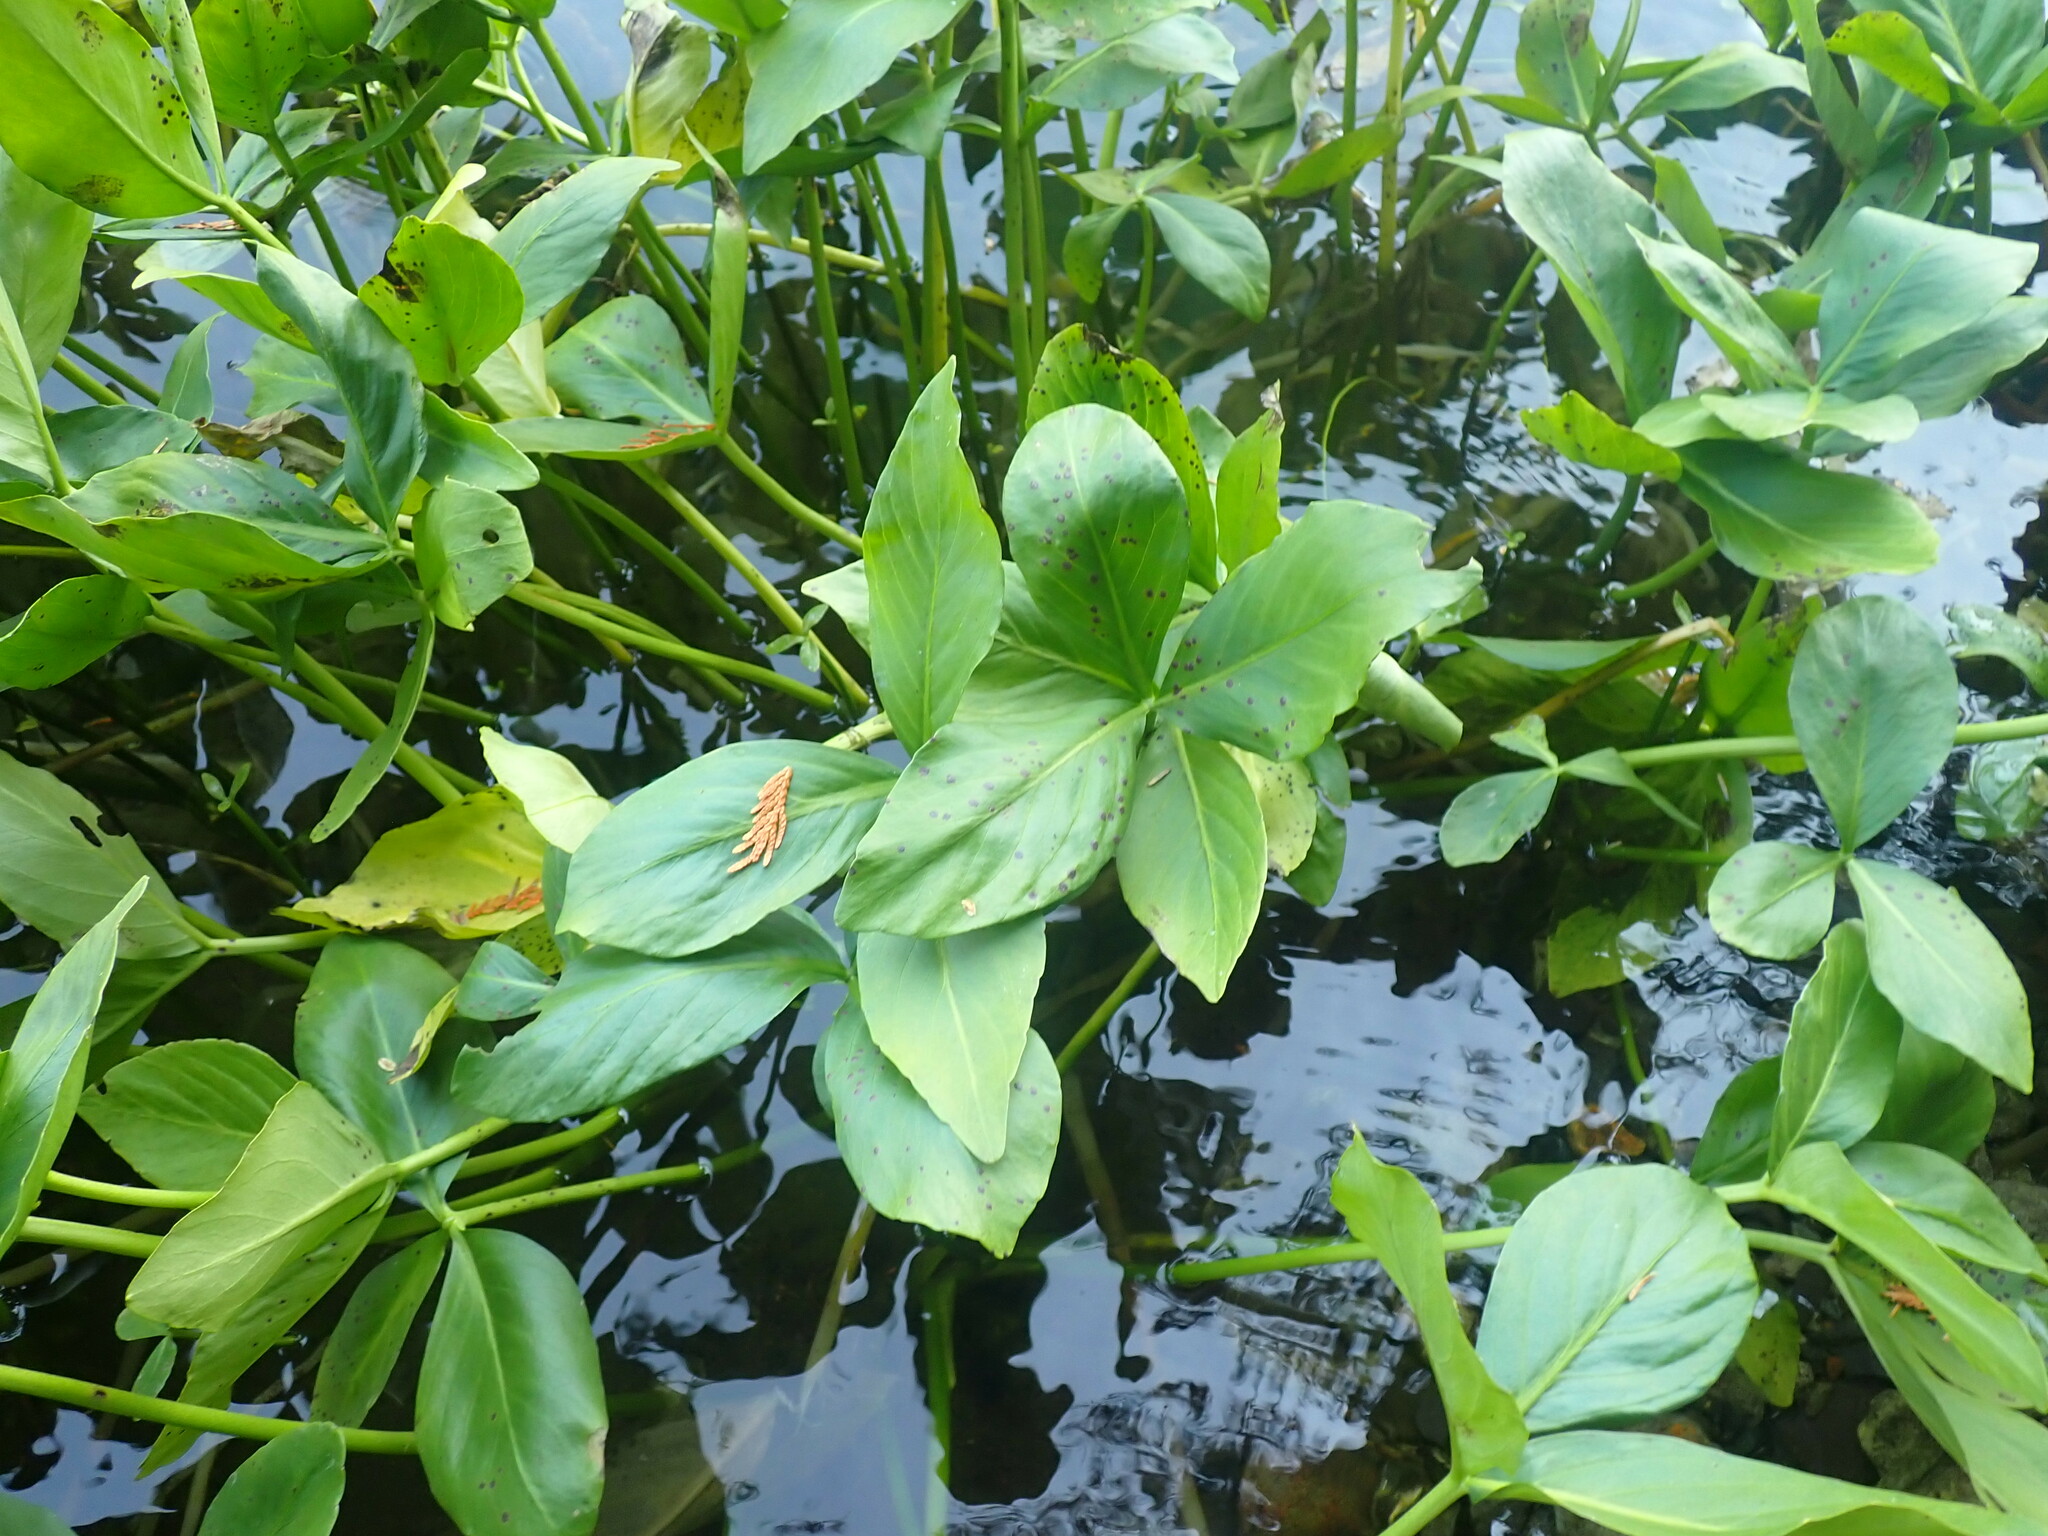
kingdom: Plantae
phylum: Tracheophyta
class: Magnoliopsida
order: Asterales
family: Menyanthaceae
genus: Menyanthes
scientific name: Menyanthes trifoliata
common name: Bogbean
